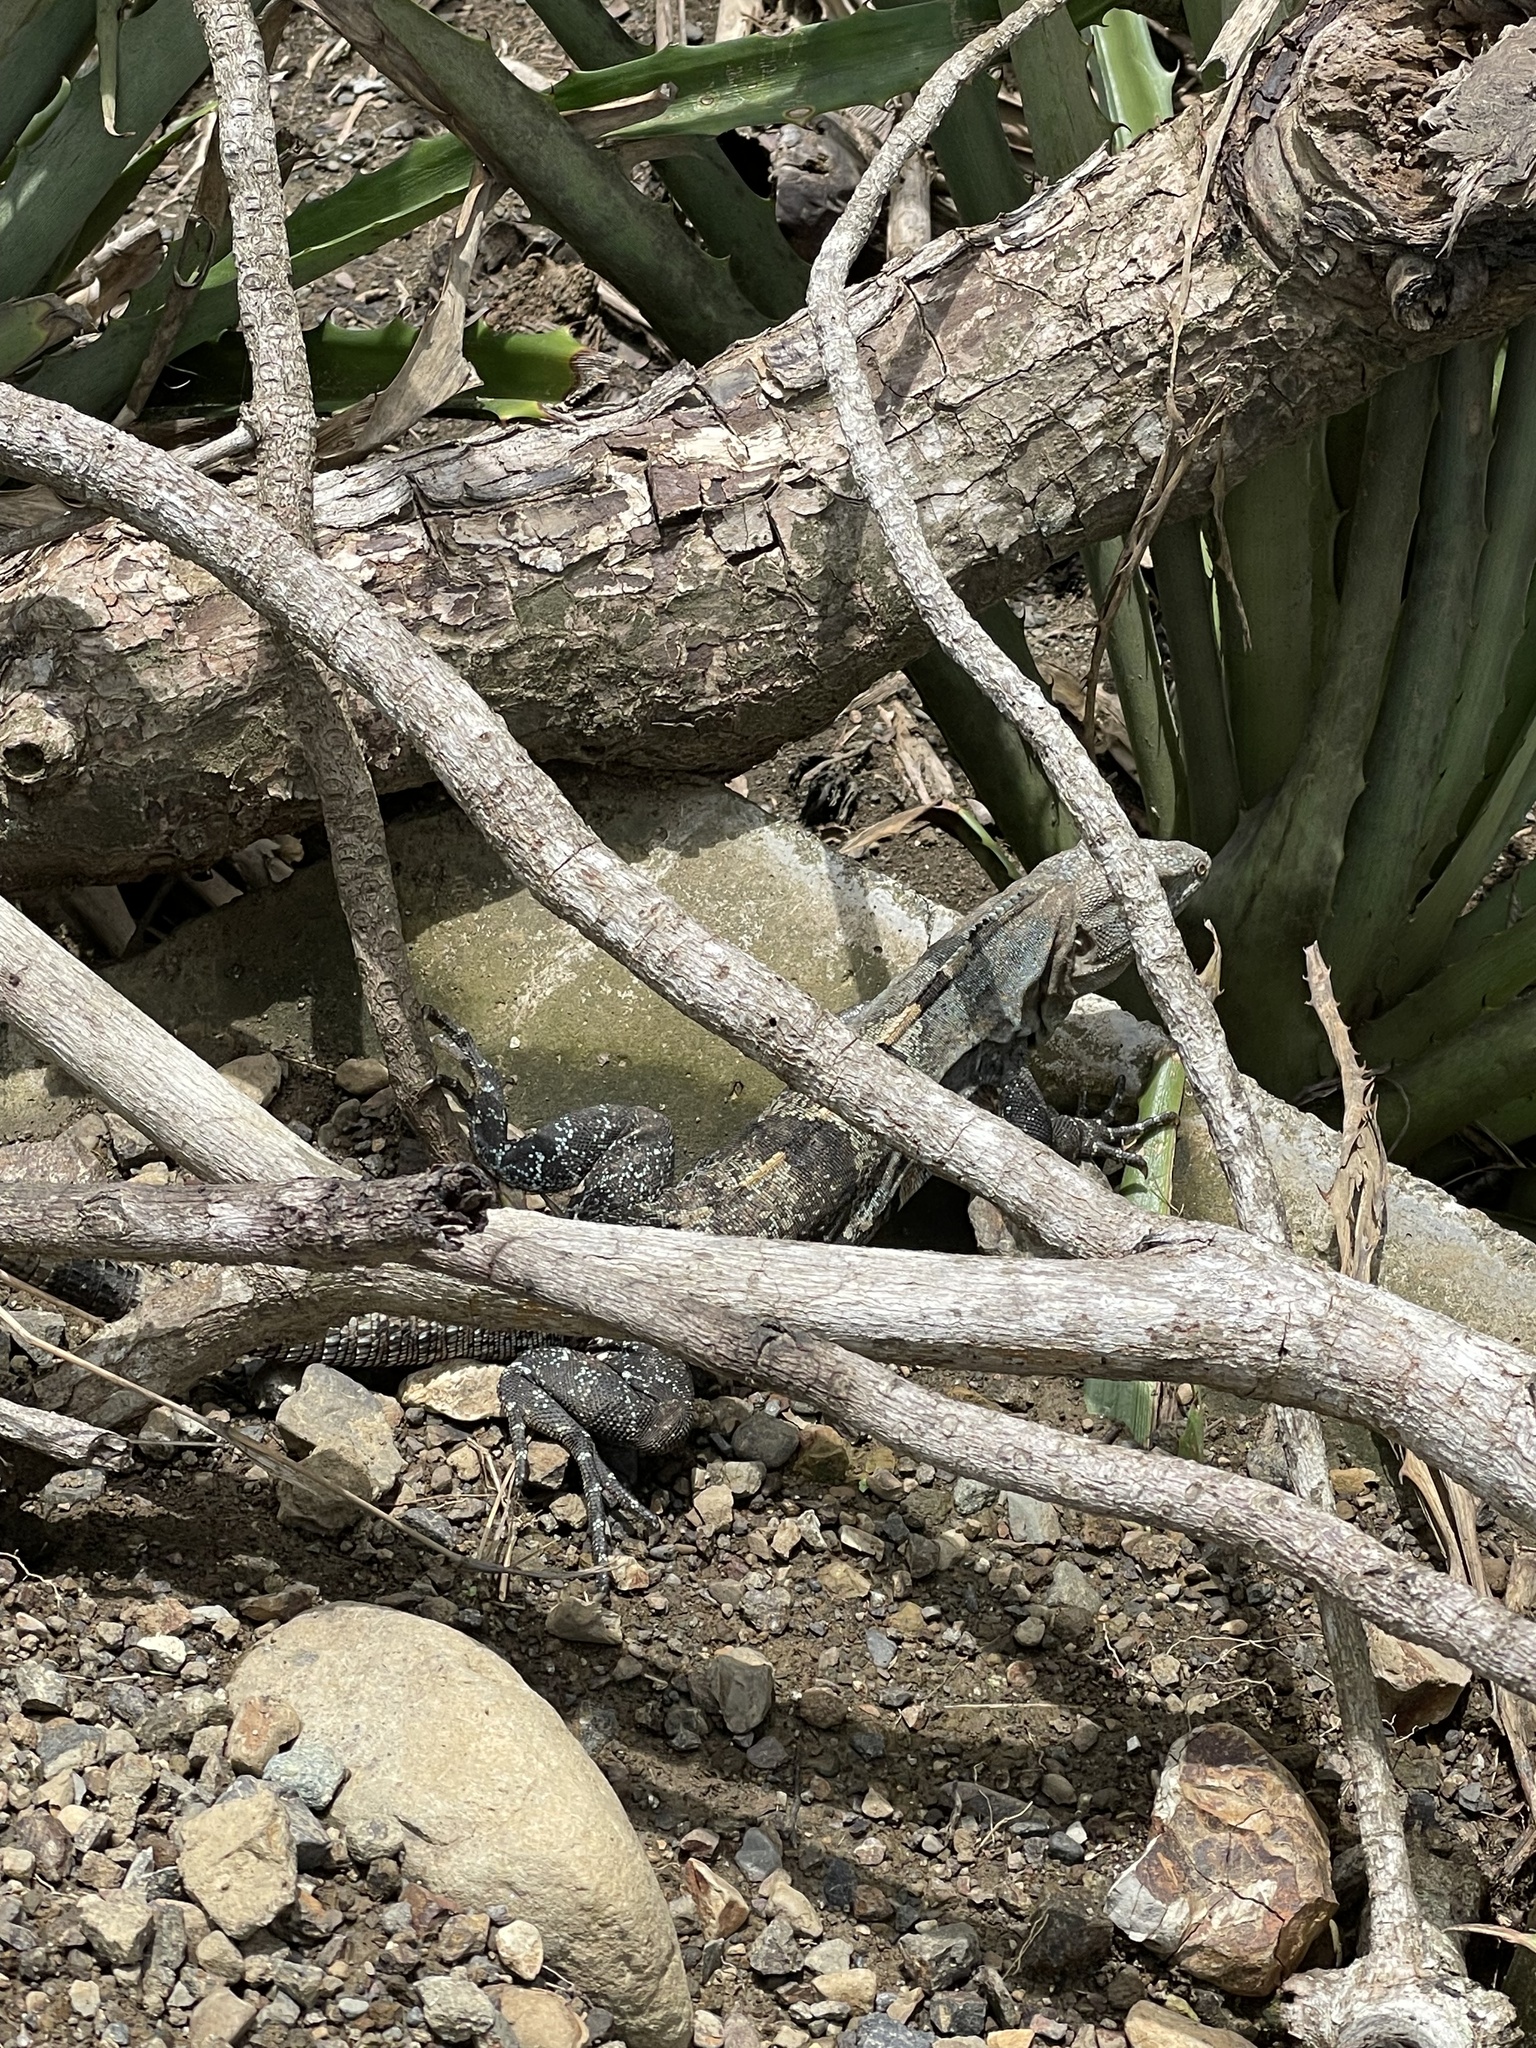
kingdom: Animalia
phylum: Chordata
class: Squamata
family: Iguanidae
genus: Ctenosaura
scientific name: Ctenosaura similis
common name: Black spiny-tailed iguana
